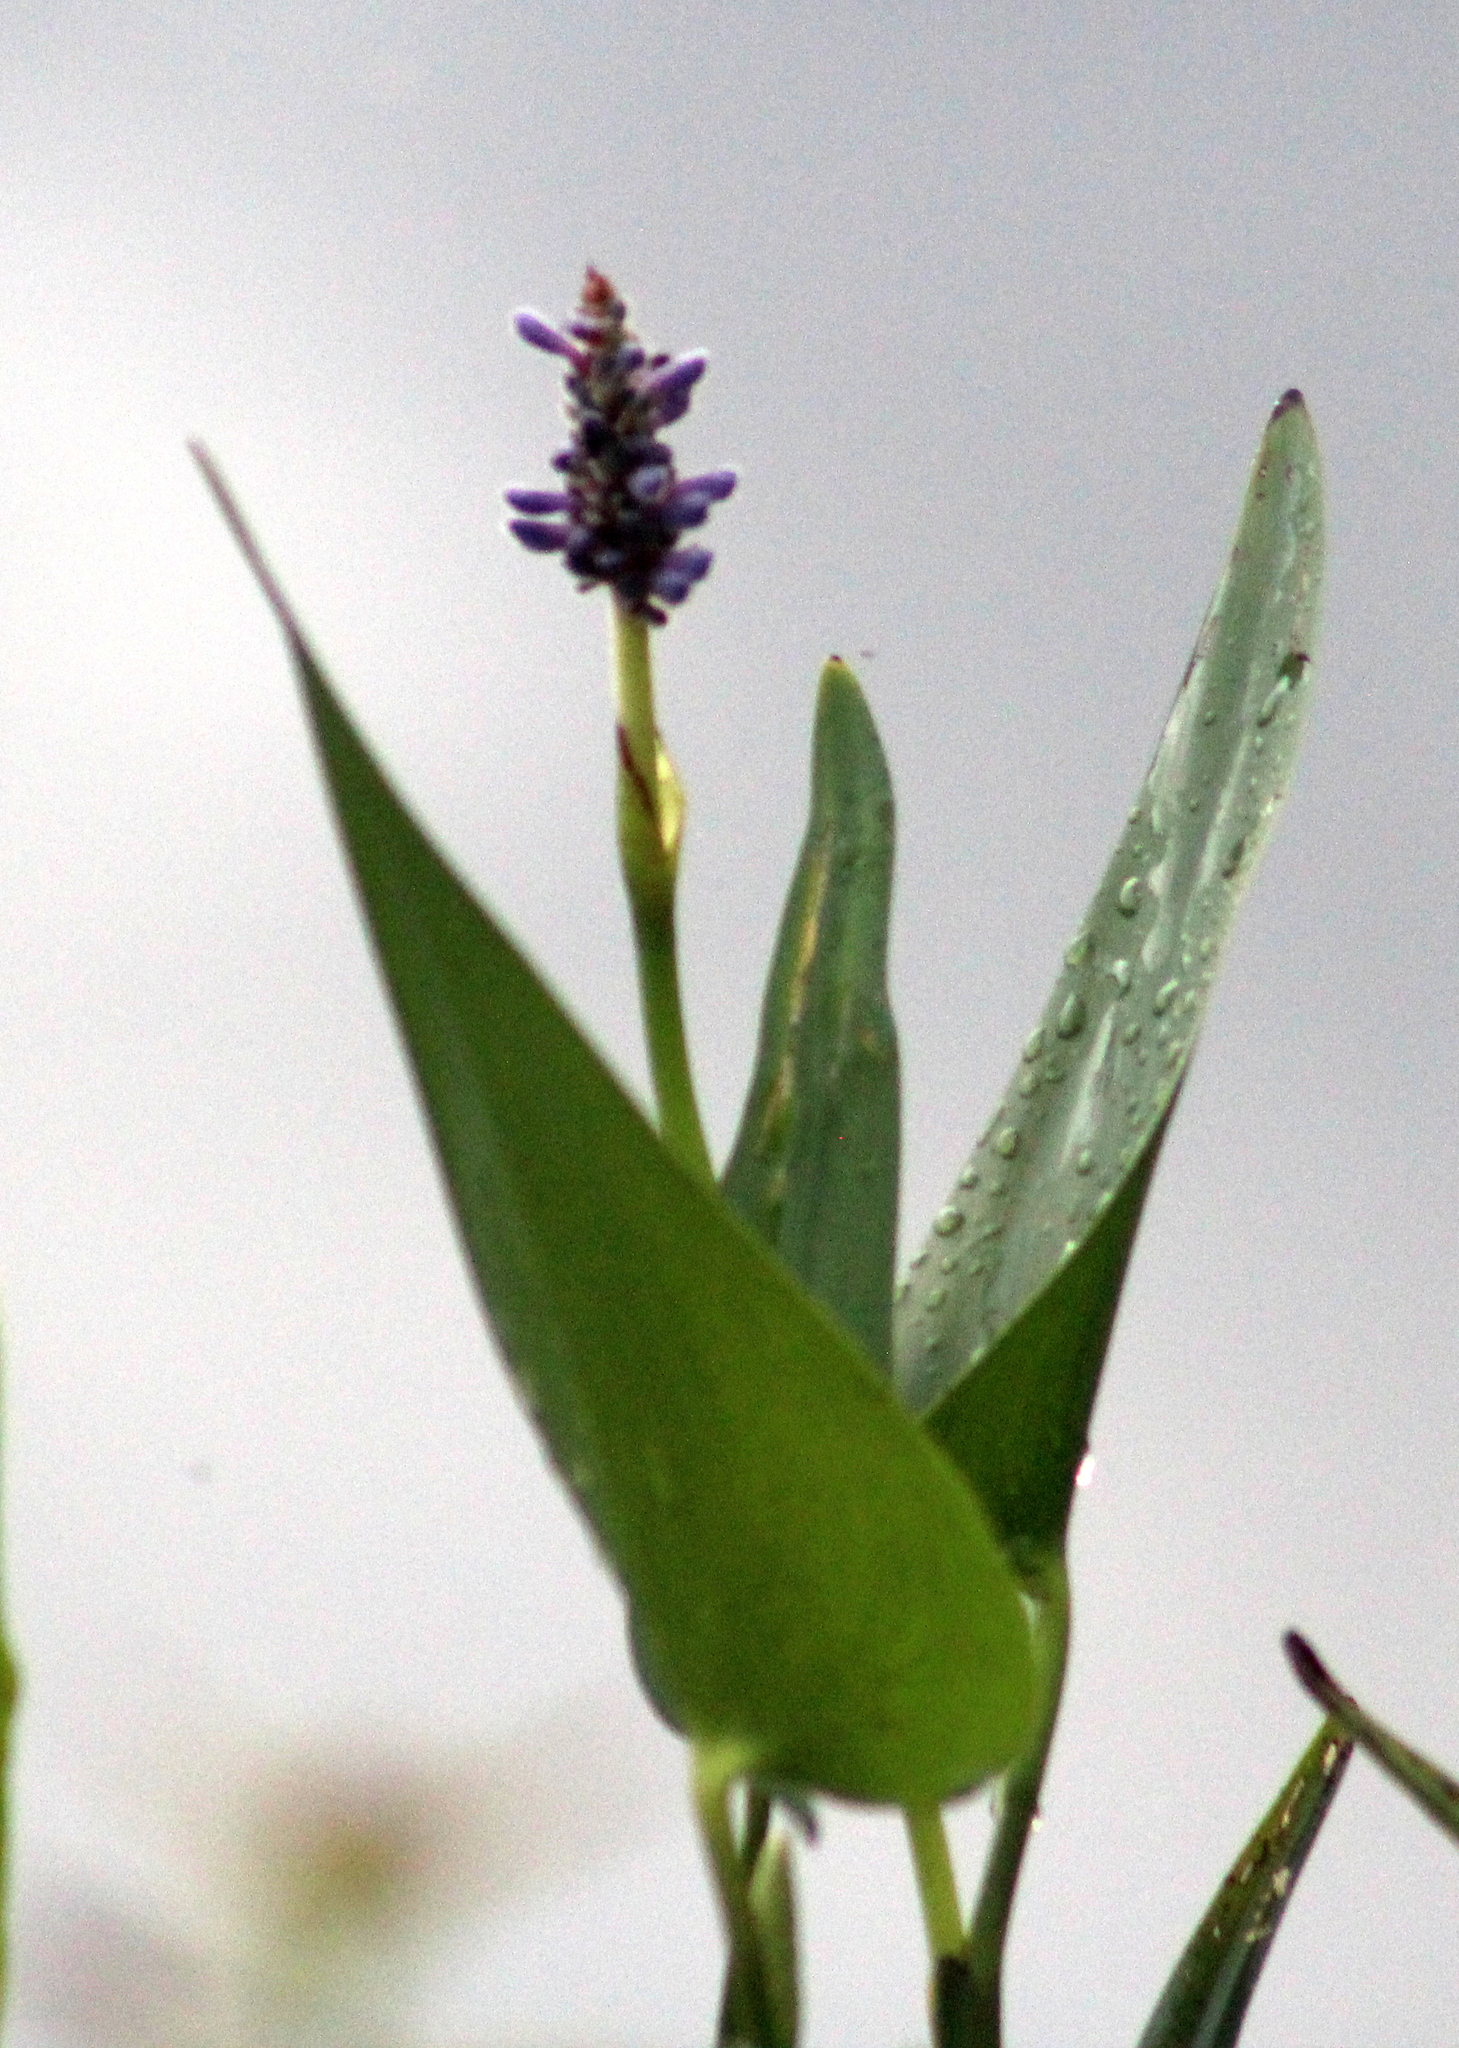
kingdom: Plantae
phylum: Tracheophyta
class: Liliopsida
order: Commelinales
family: Pontederiaceae
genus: Pontederia
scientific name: Pontederia cordata
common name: Pickerelweed
